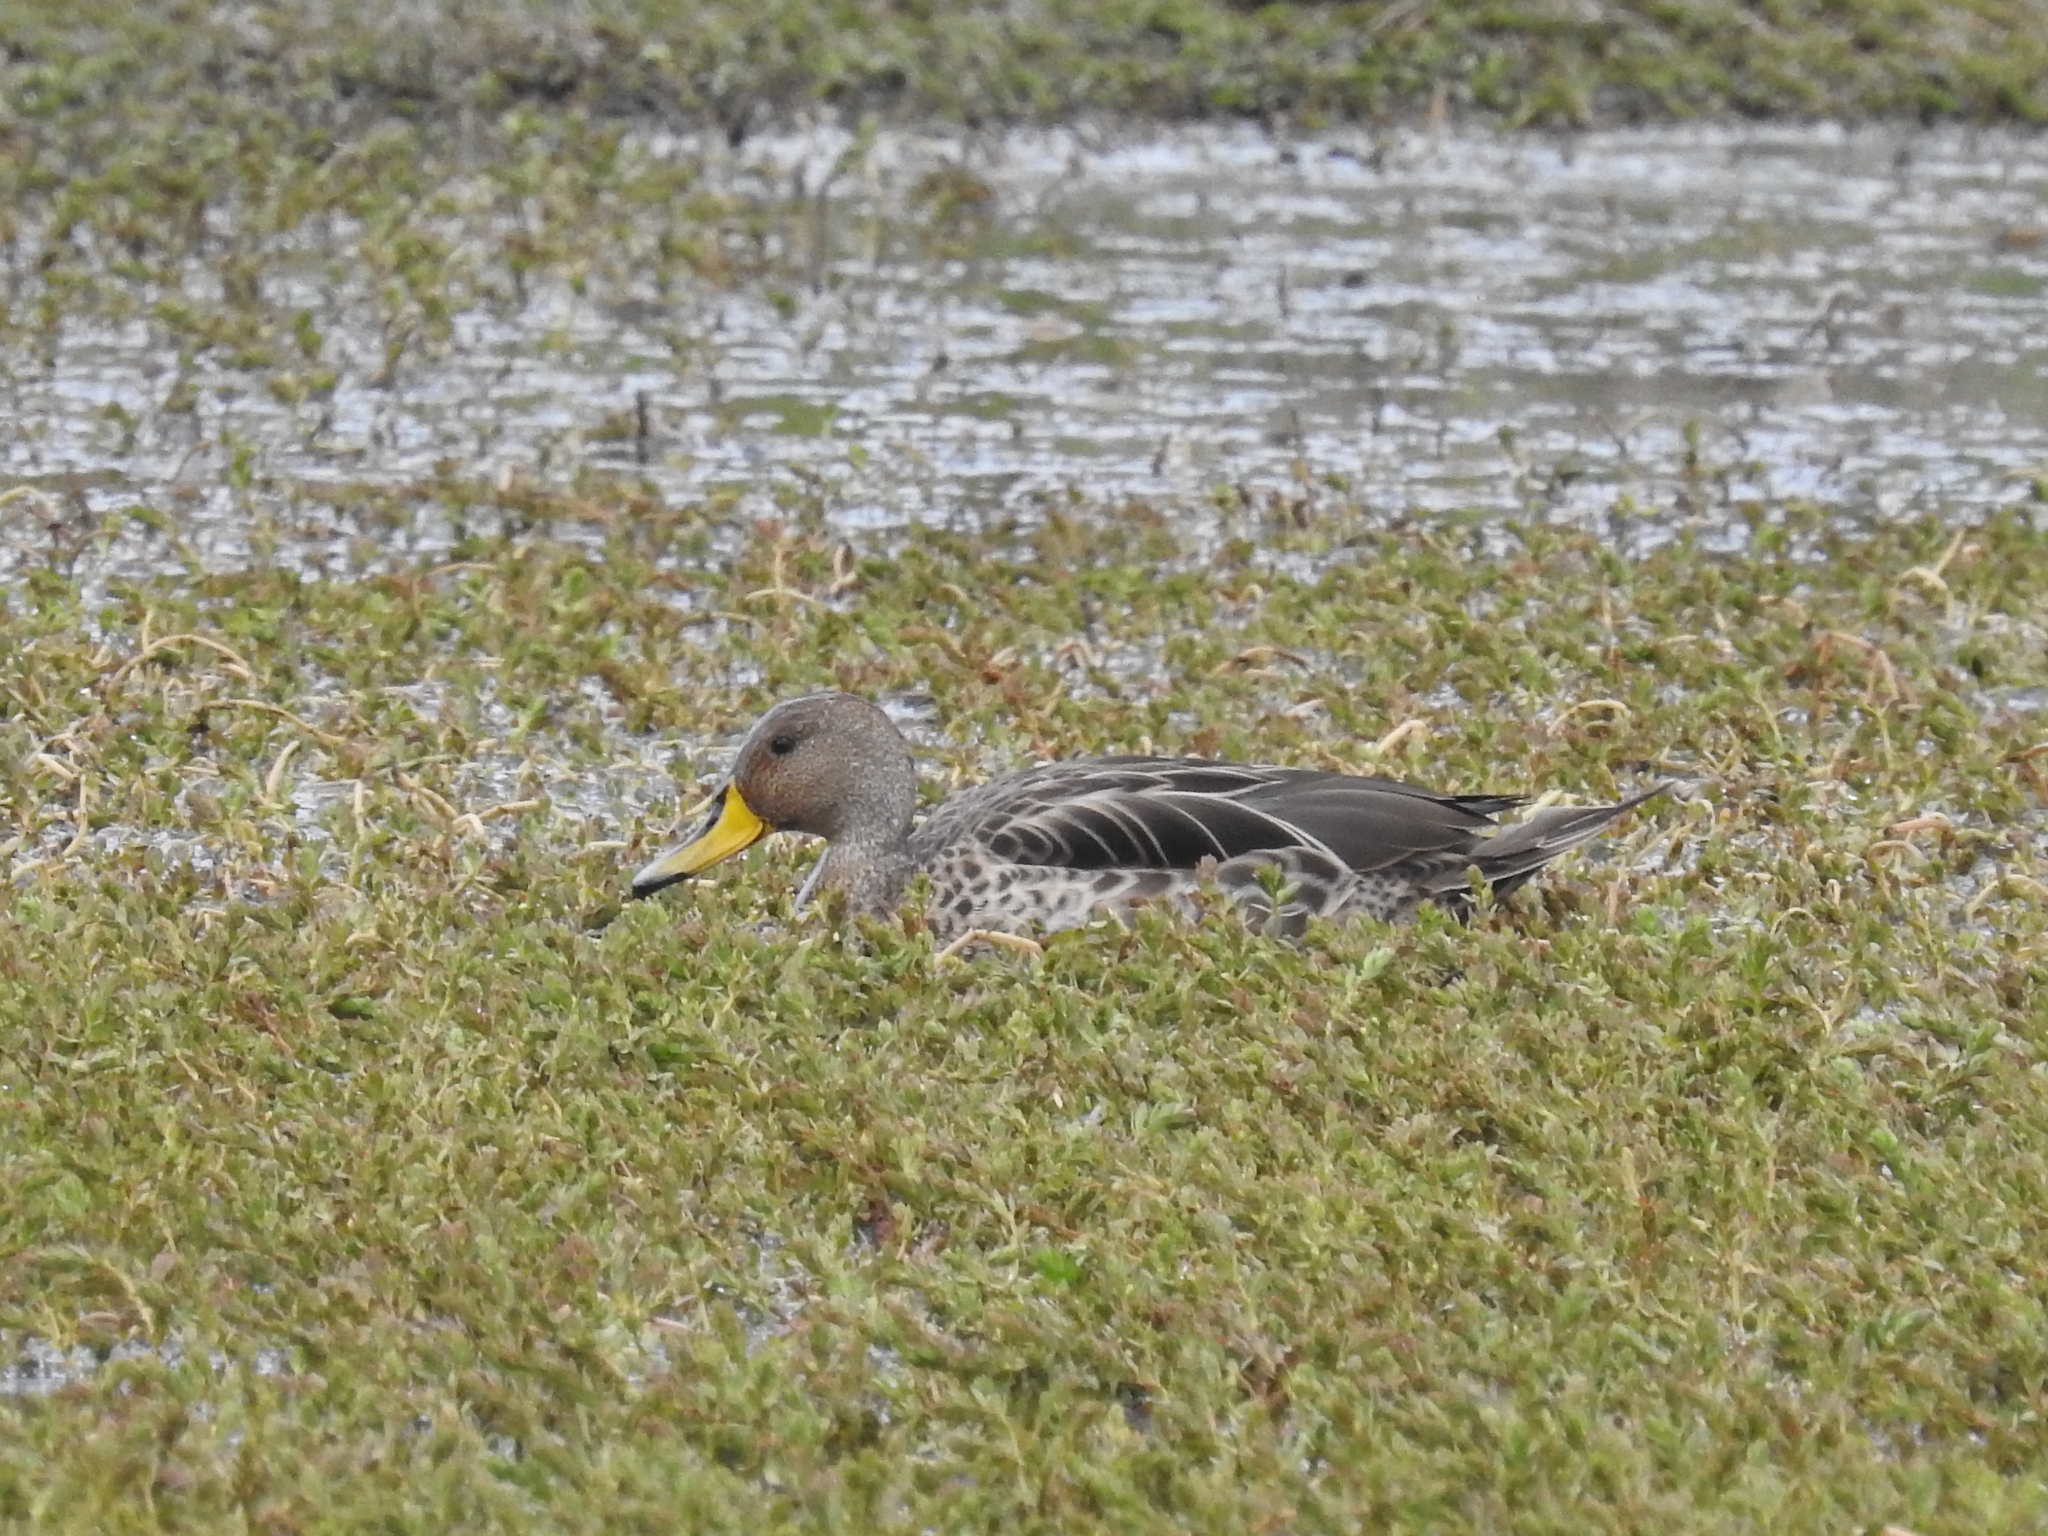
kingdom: Animalia
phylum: Chordata
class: Aves
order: Anseriformes
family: Anatidae
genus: Anas
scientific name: Anas georgica
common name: Yellow-billed pintail
